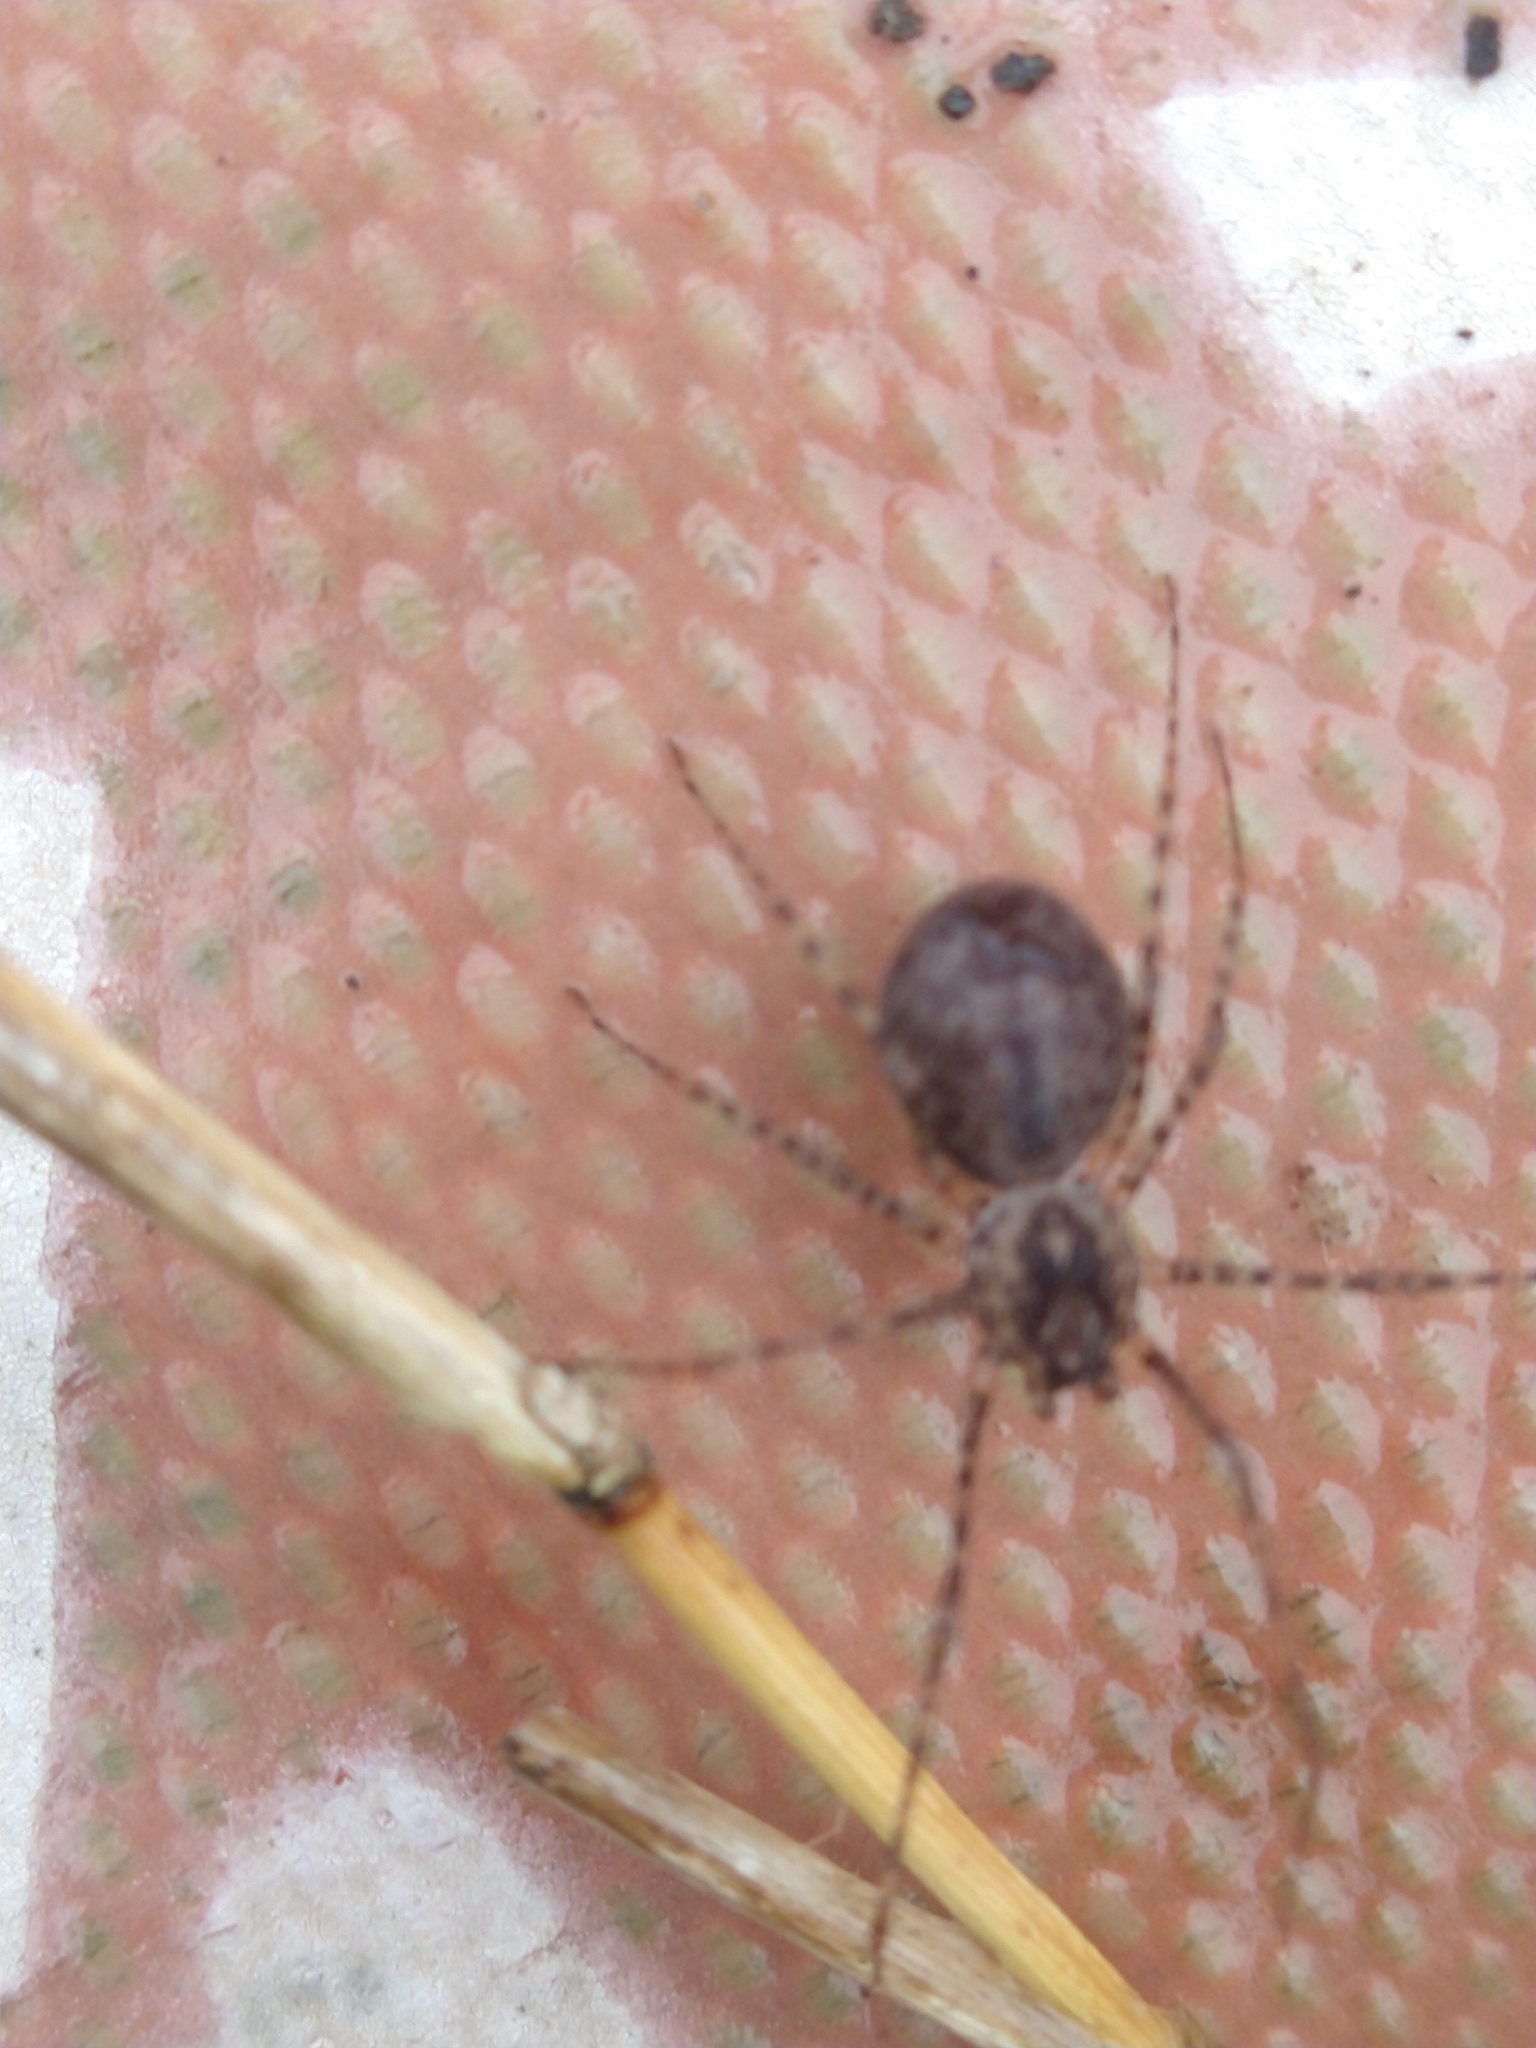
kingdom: Animalia
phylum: Arthropoda
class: Arachnida
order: Araneae
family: Scytodidae
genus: Scytodes
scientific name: Scytodes globula
